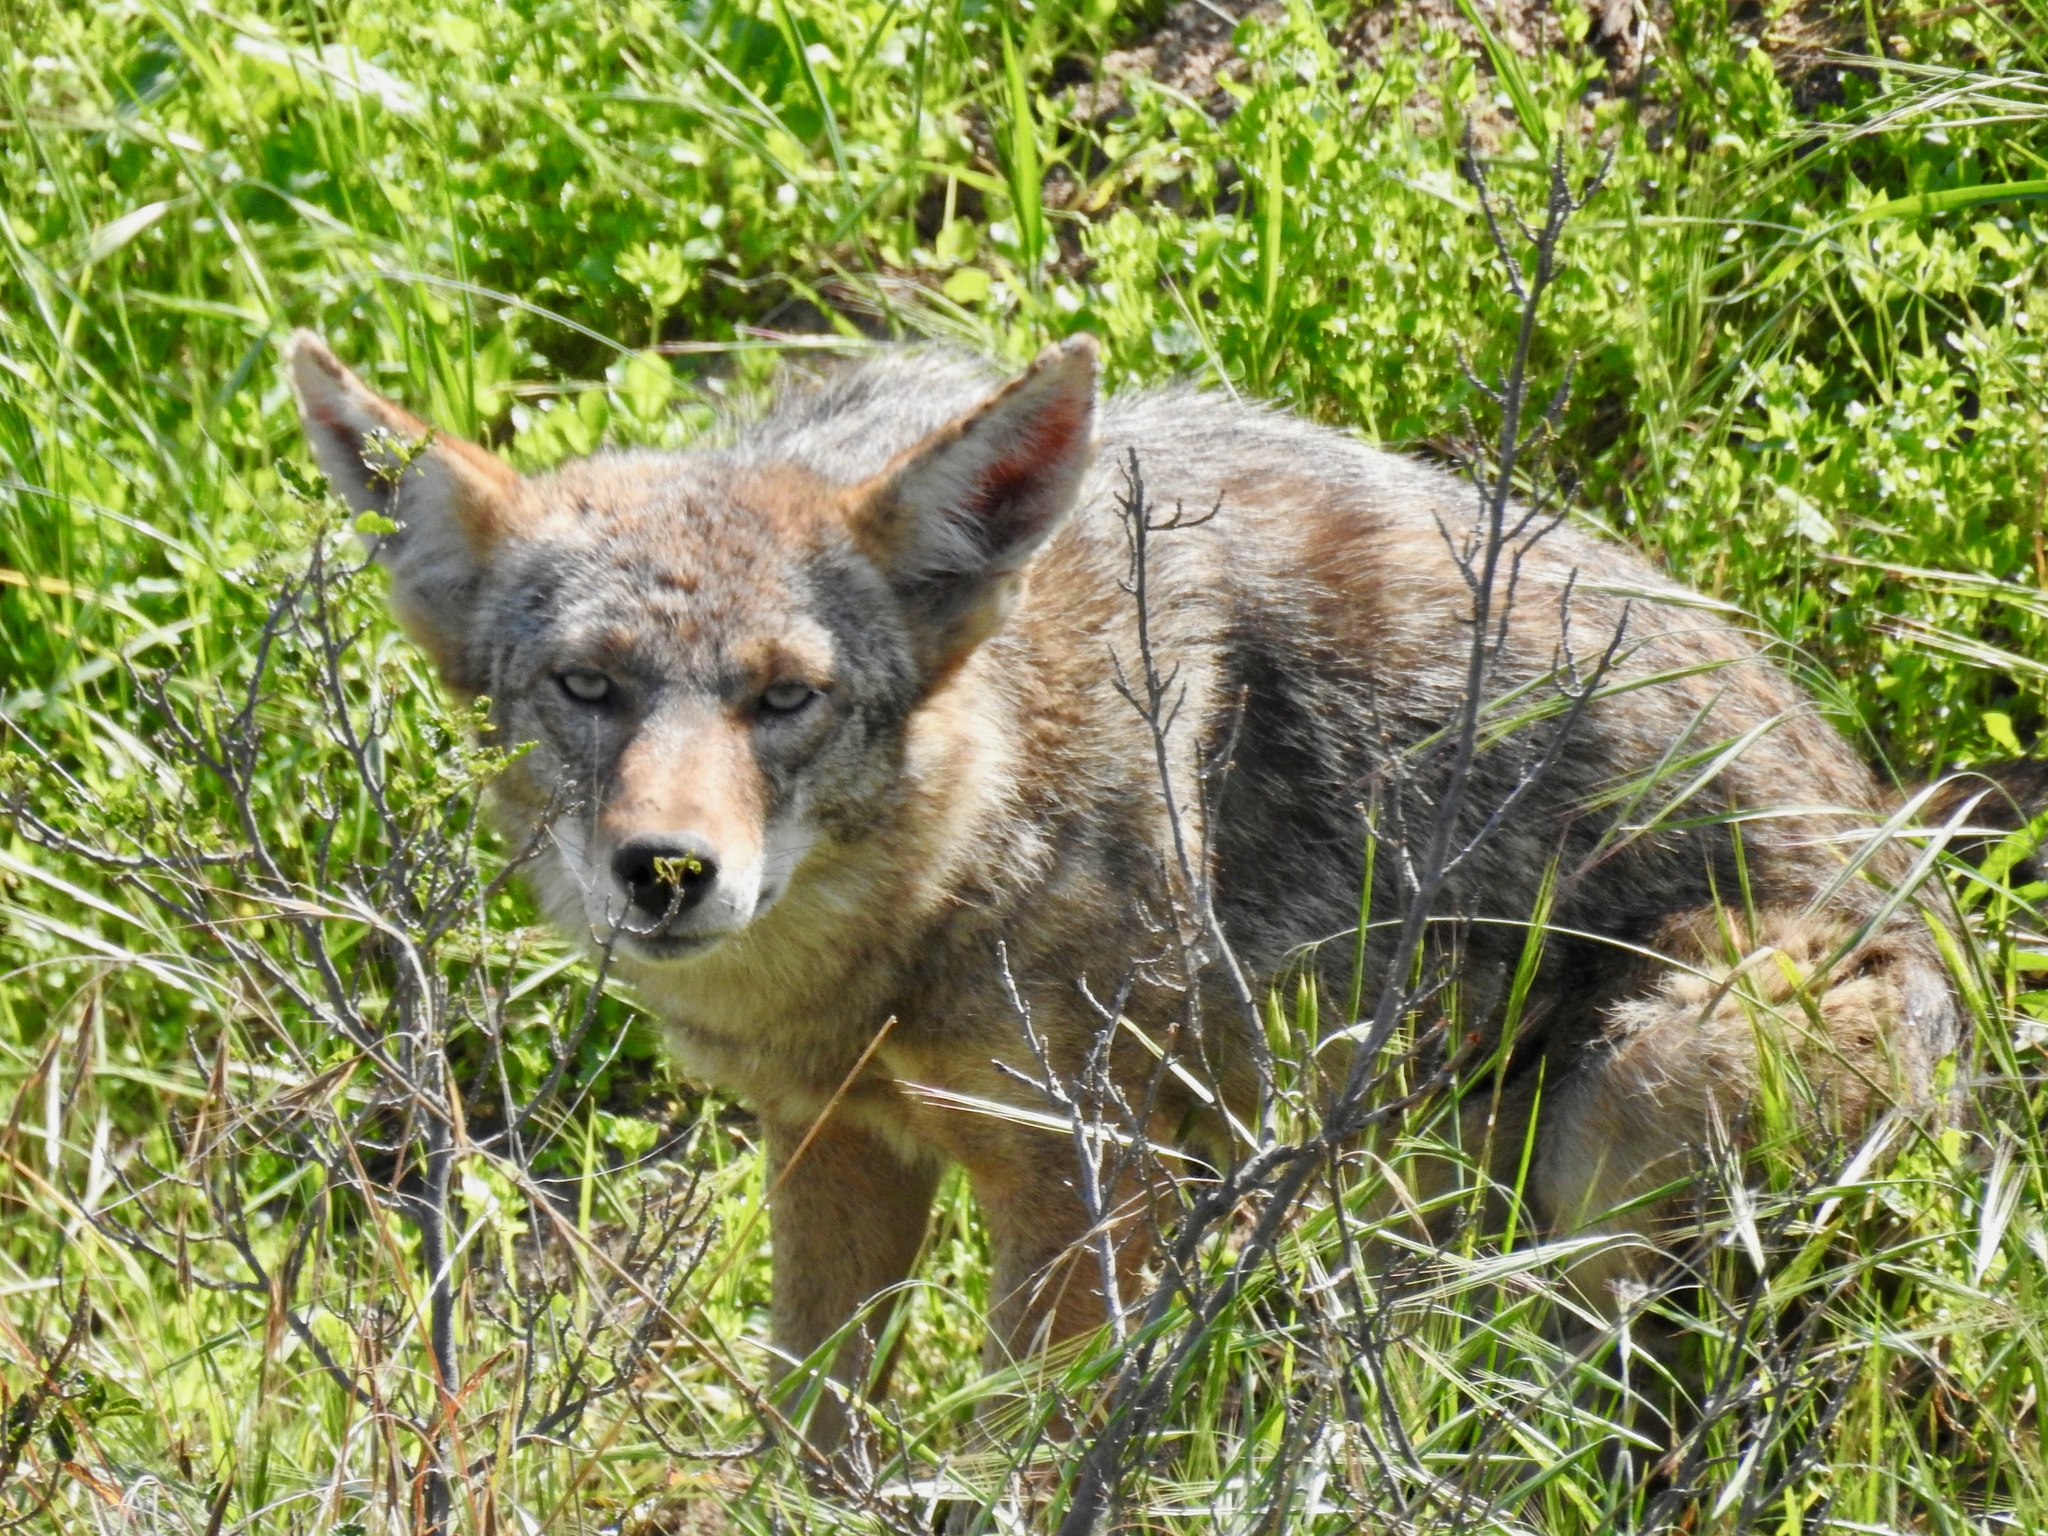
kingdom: Animalia
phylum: Chordata
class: Mammalia
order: Carnivora
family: Canidae
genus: Canis
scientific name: Canis latrans
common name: Coyote
